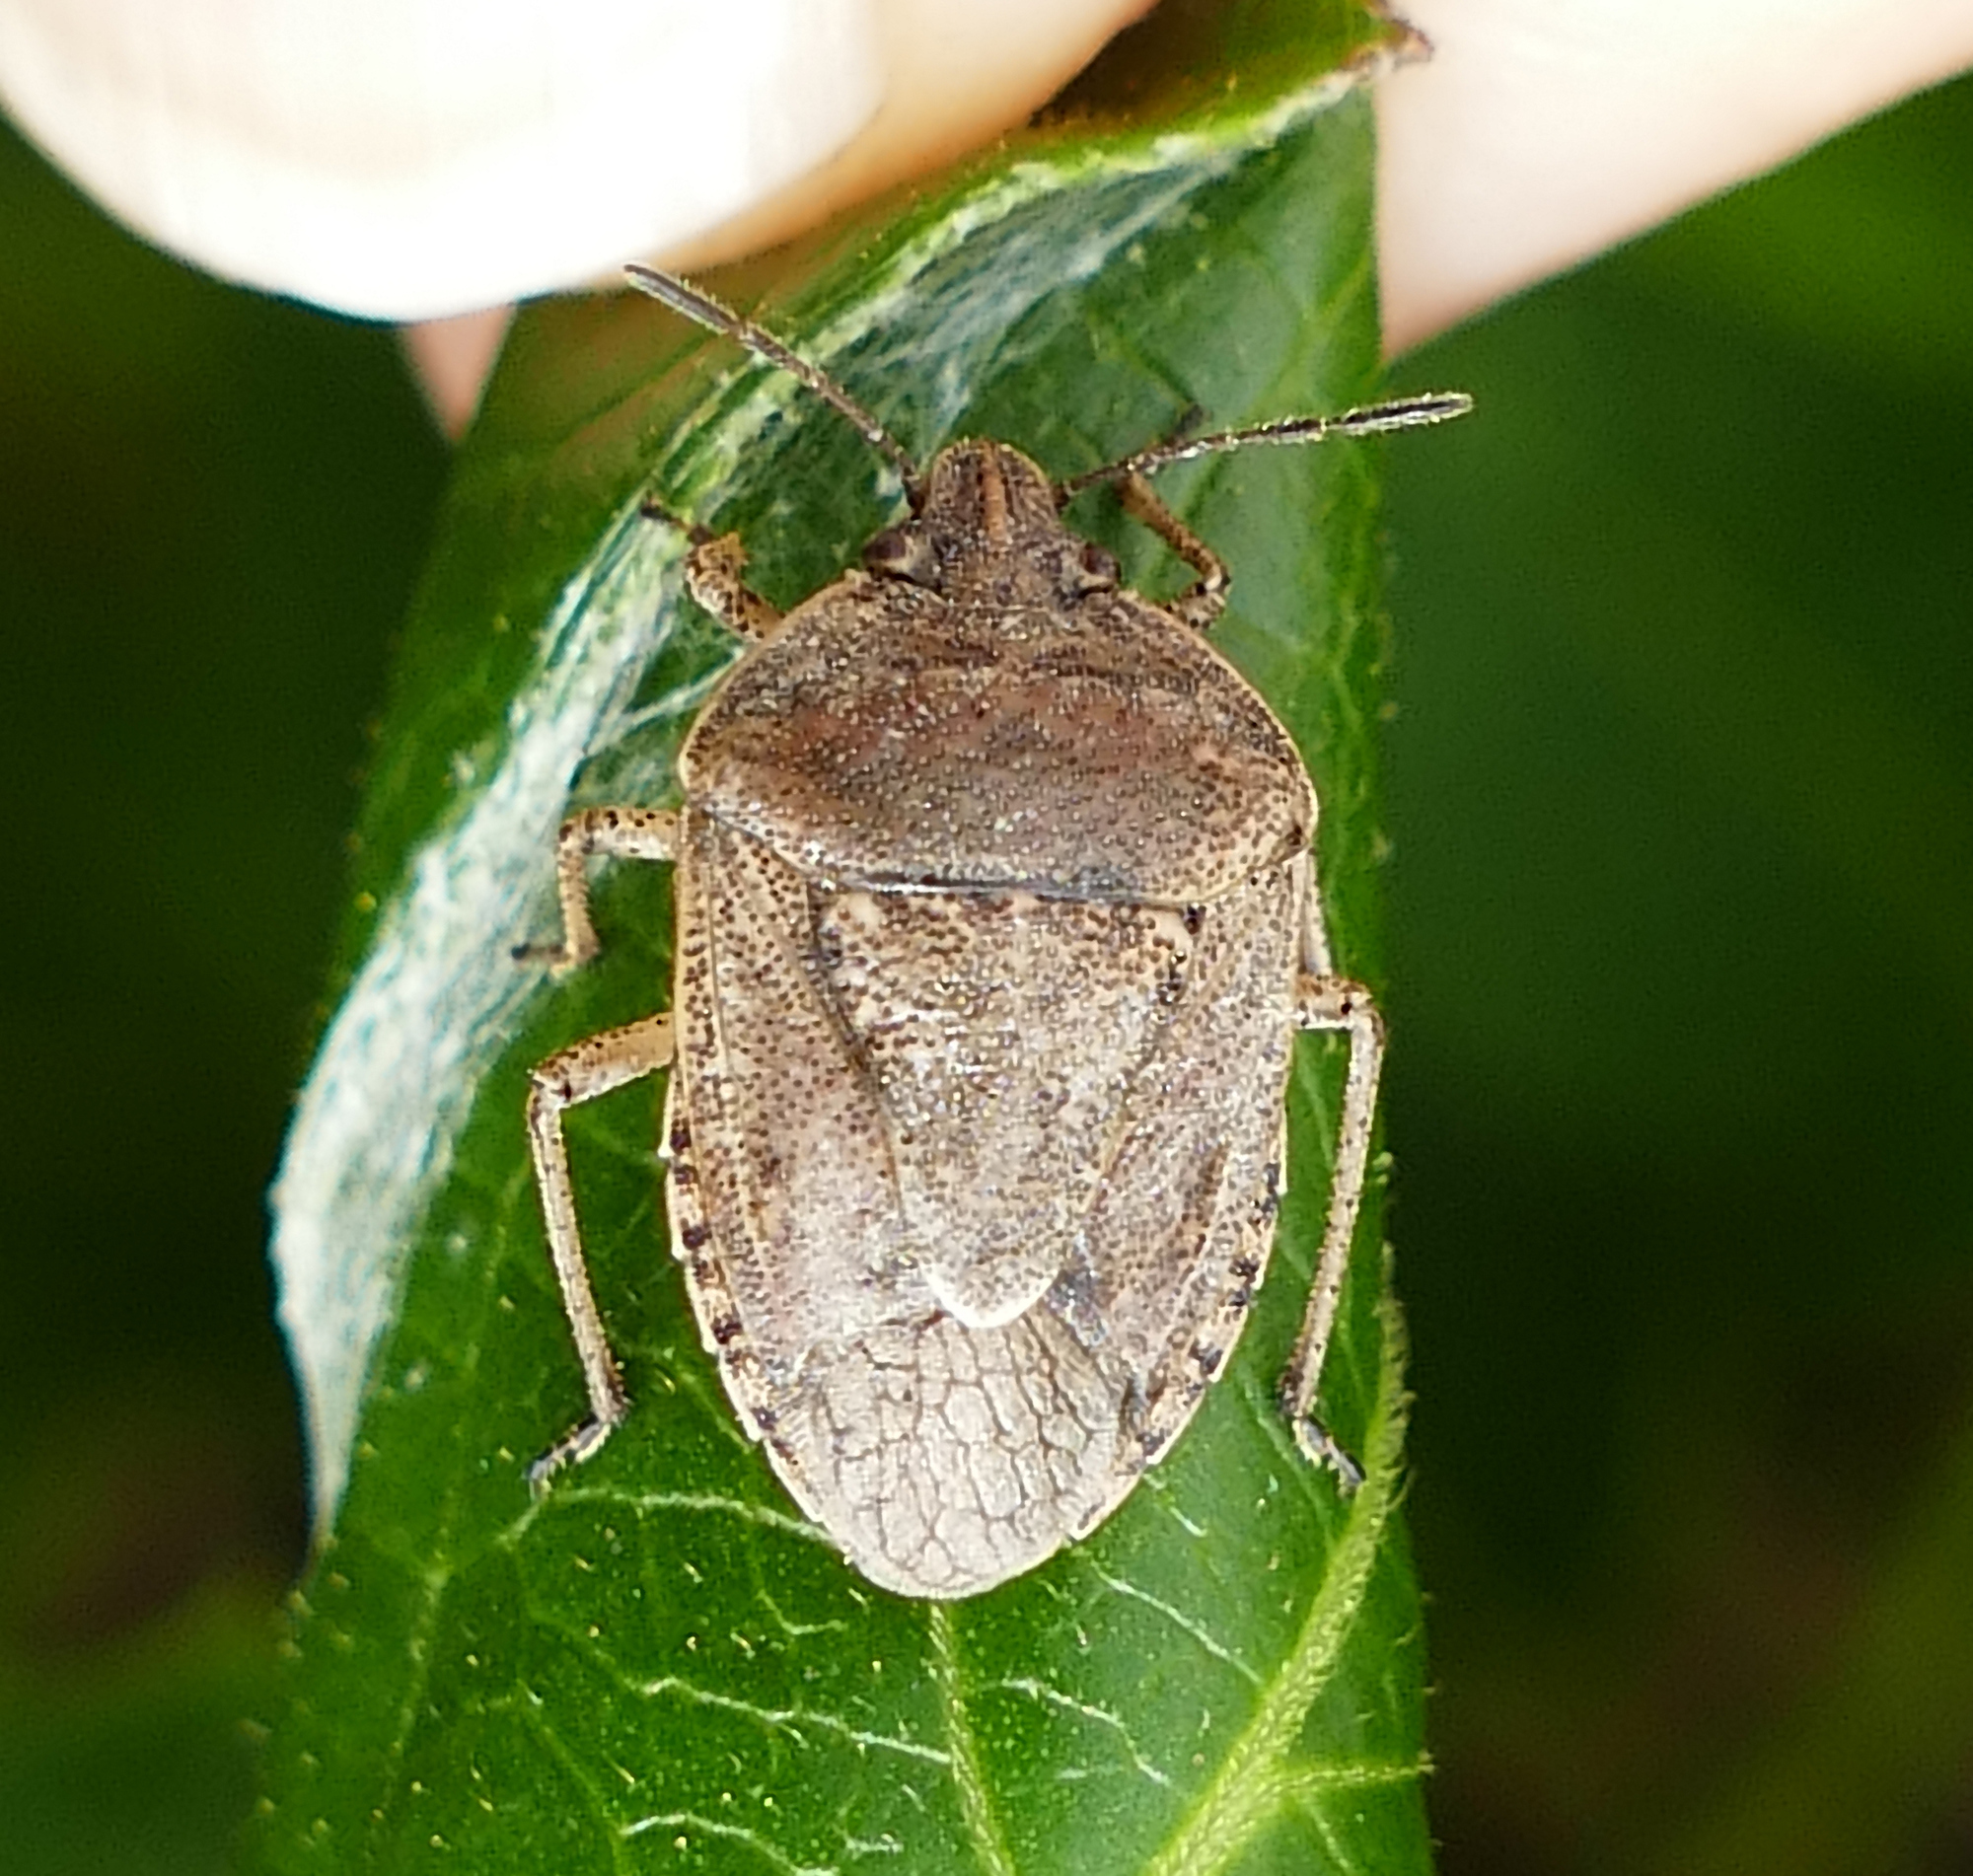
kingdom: Animalia
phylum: Arthropoda
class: Insecta
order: Hemiptera
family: Pentatomidae
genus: Hymenarcys
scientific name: Hymenarcys nervosa
